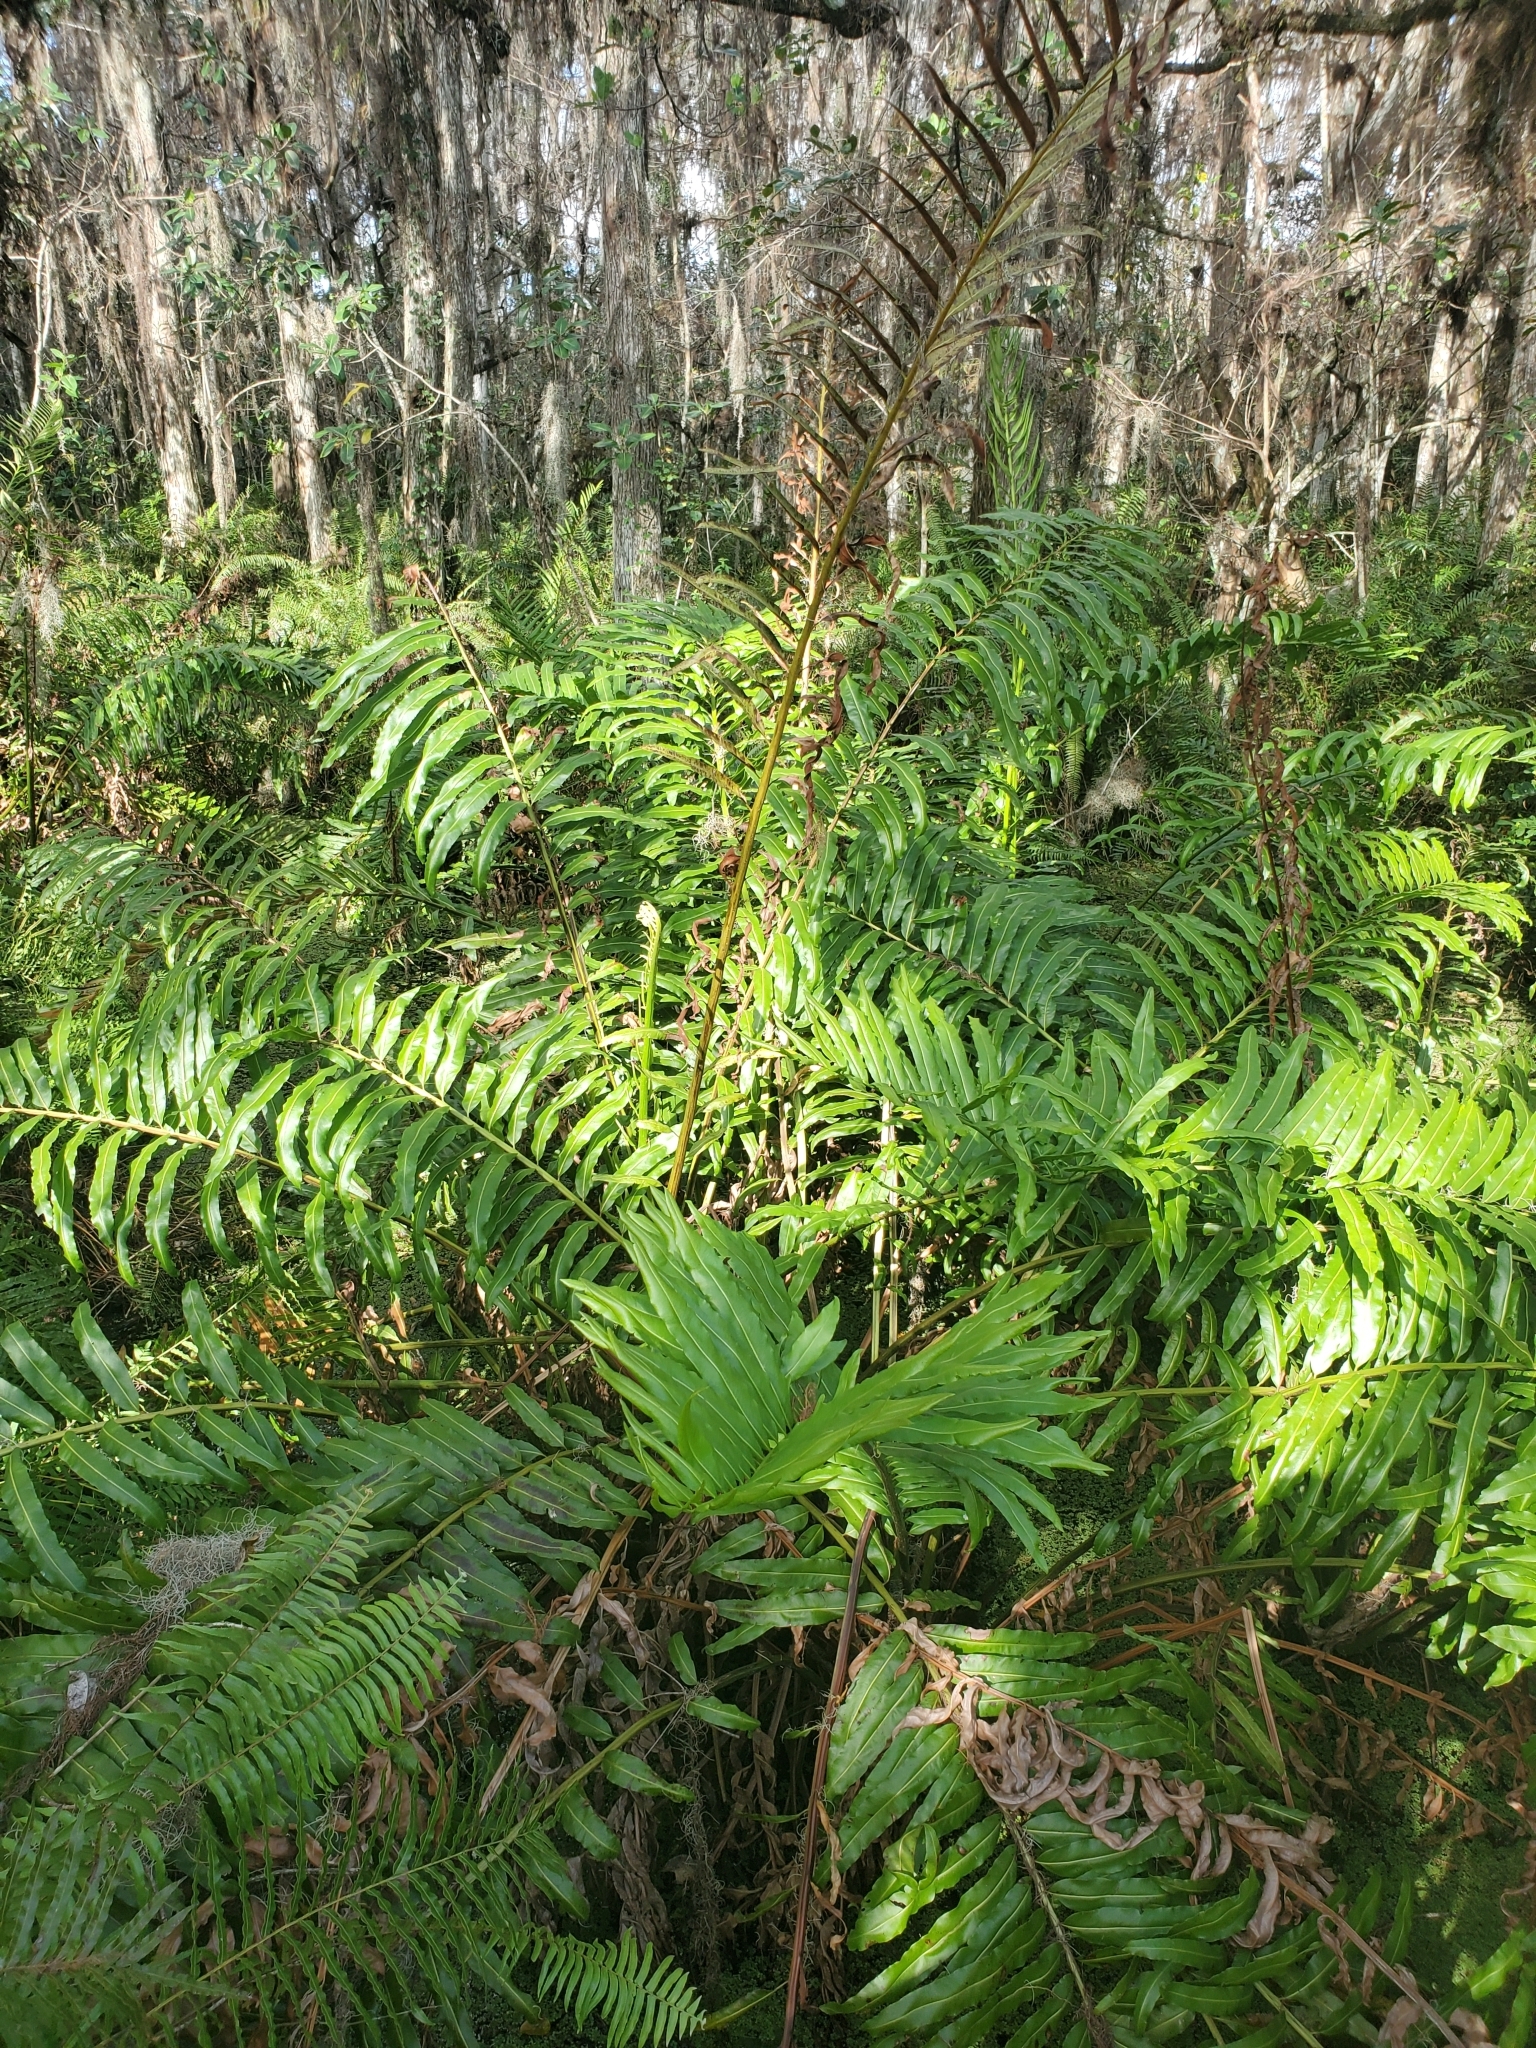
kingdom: Plantae
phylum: Tracheophyta
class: Polypodiopsida
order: Polypodiales
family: Pteridaceae
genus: Acrostichum
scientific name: Acrostichum danaeifolium
